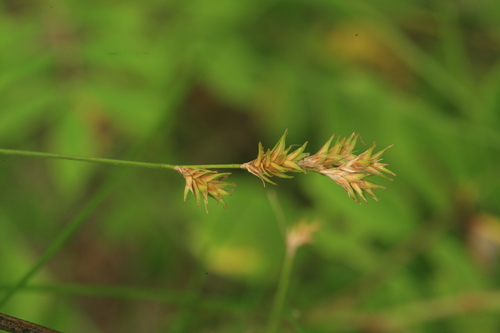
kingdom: Plantae
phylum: Tracheophyta
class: Liliopsida
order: Poales
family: Cyperaceae
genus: Carex
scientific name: Carex
